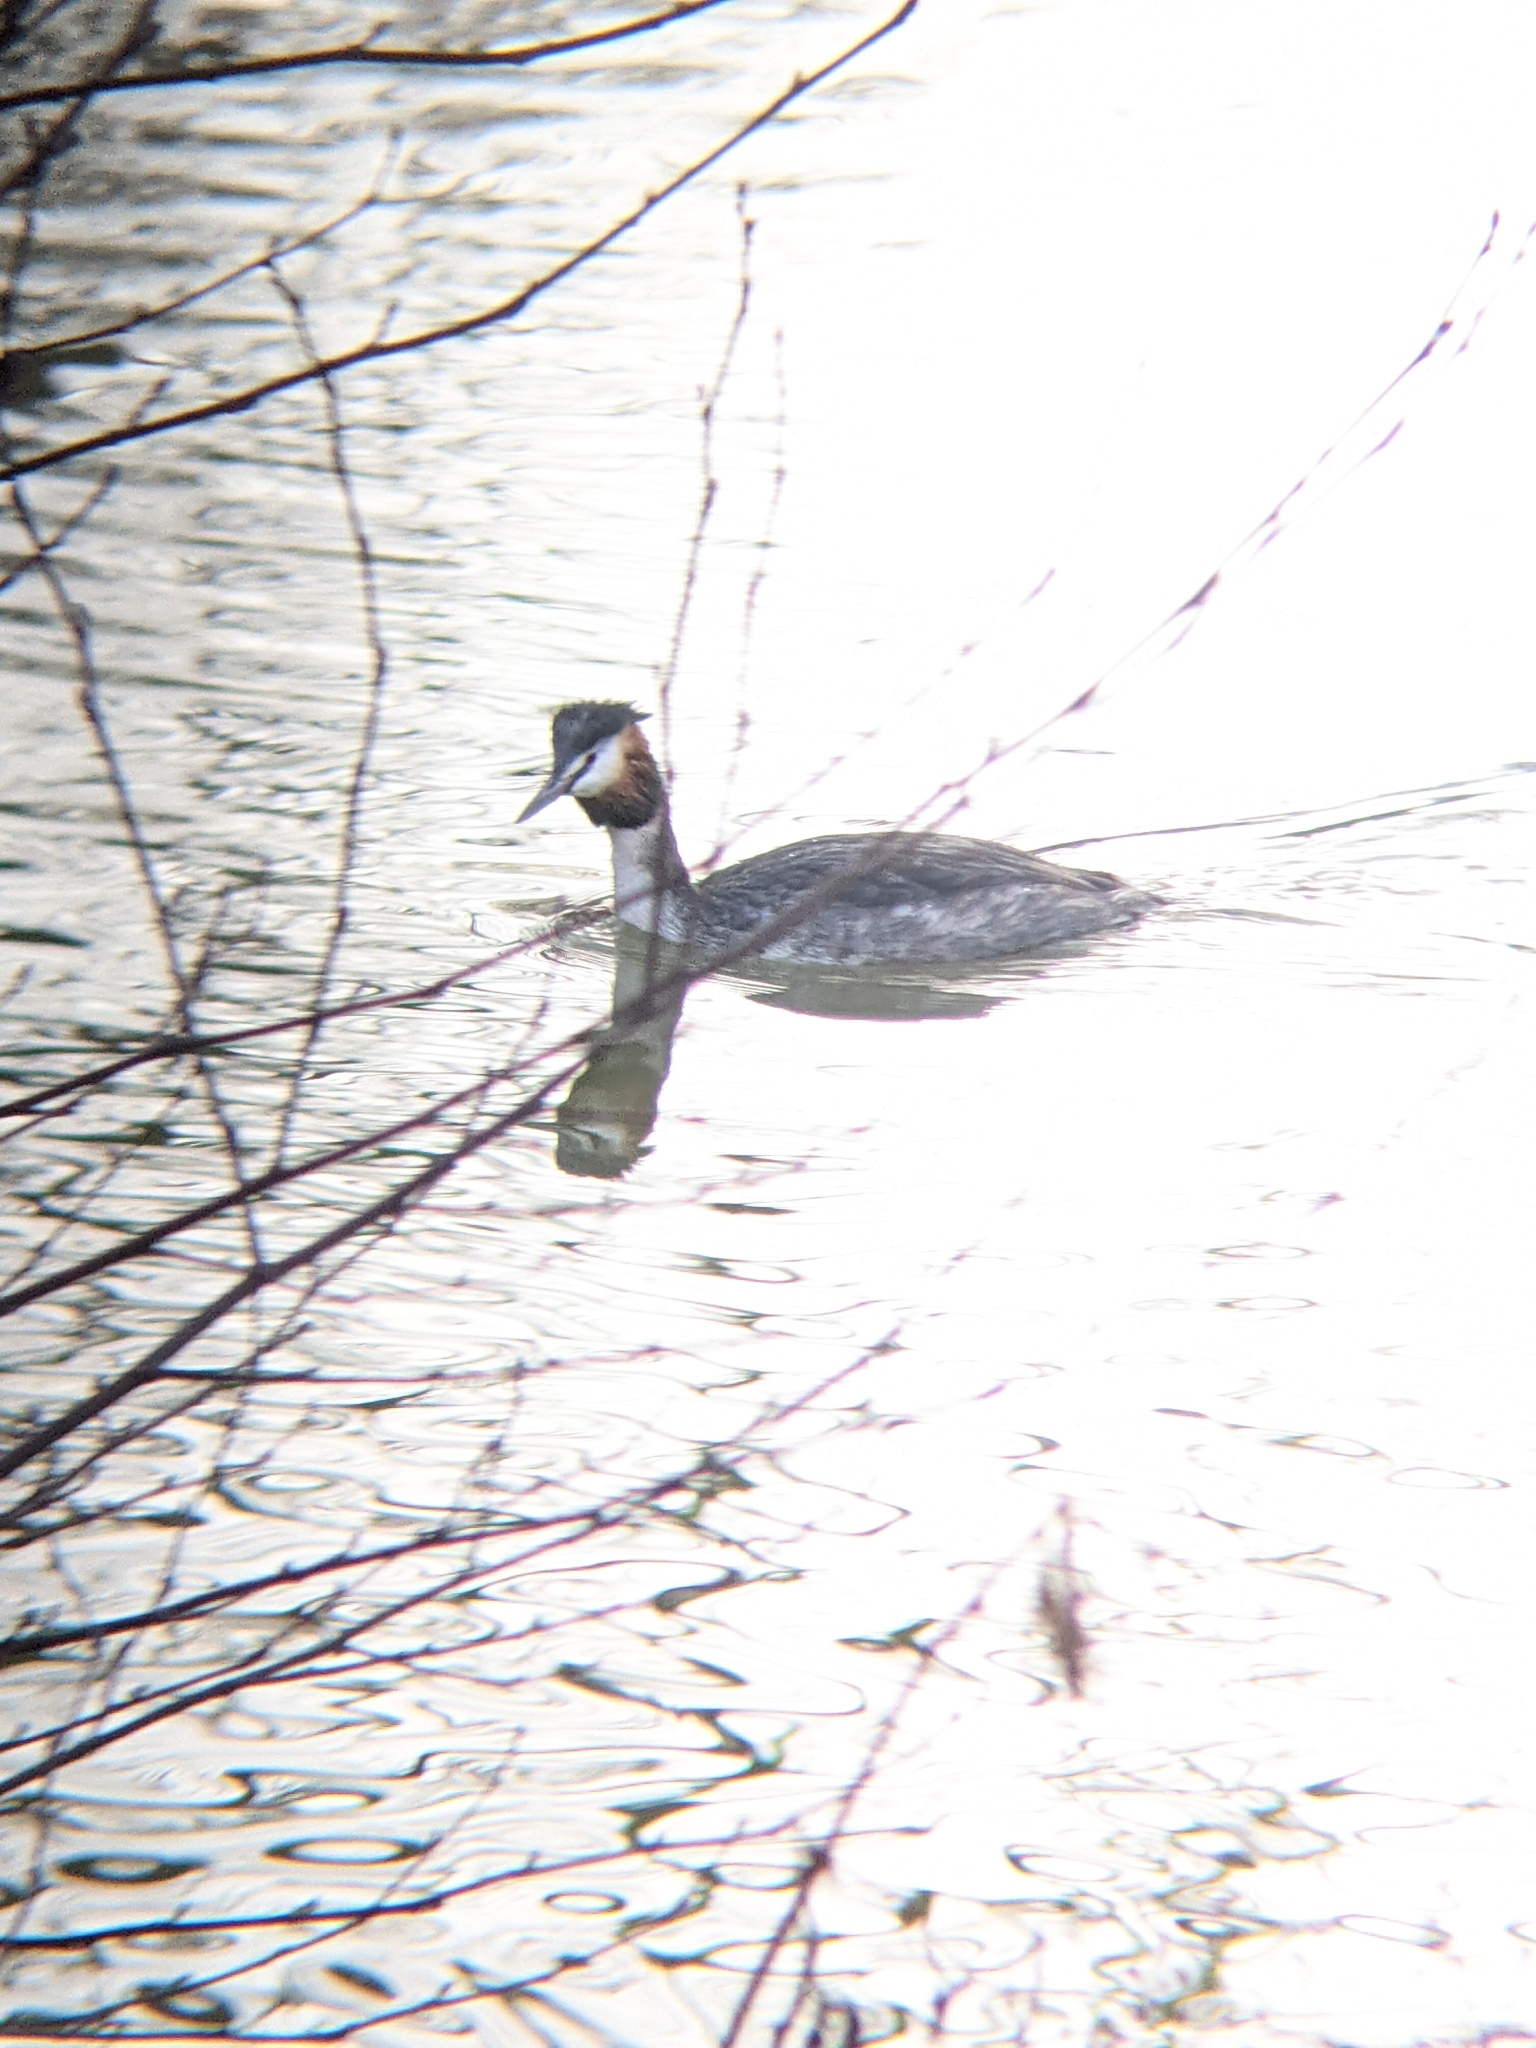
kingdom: Animalia
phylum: Chordata
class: Aves
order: Podicipediformes
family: Podicipedidae
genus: Podiceps
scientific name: Podiceps cristatus
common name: Great crested grebe
